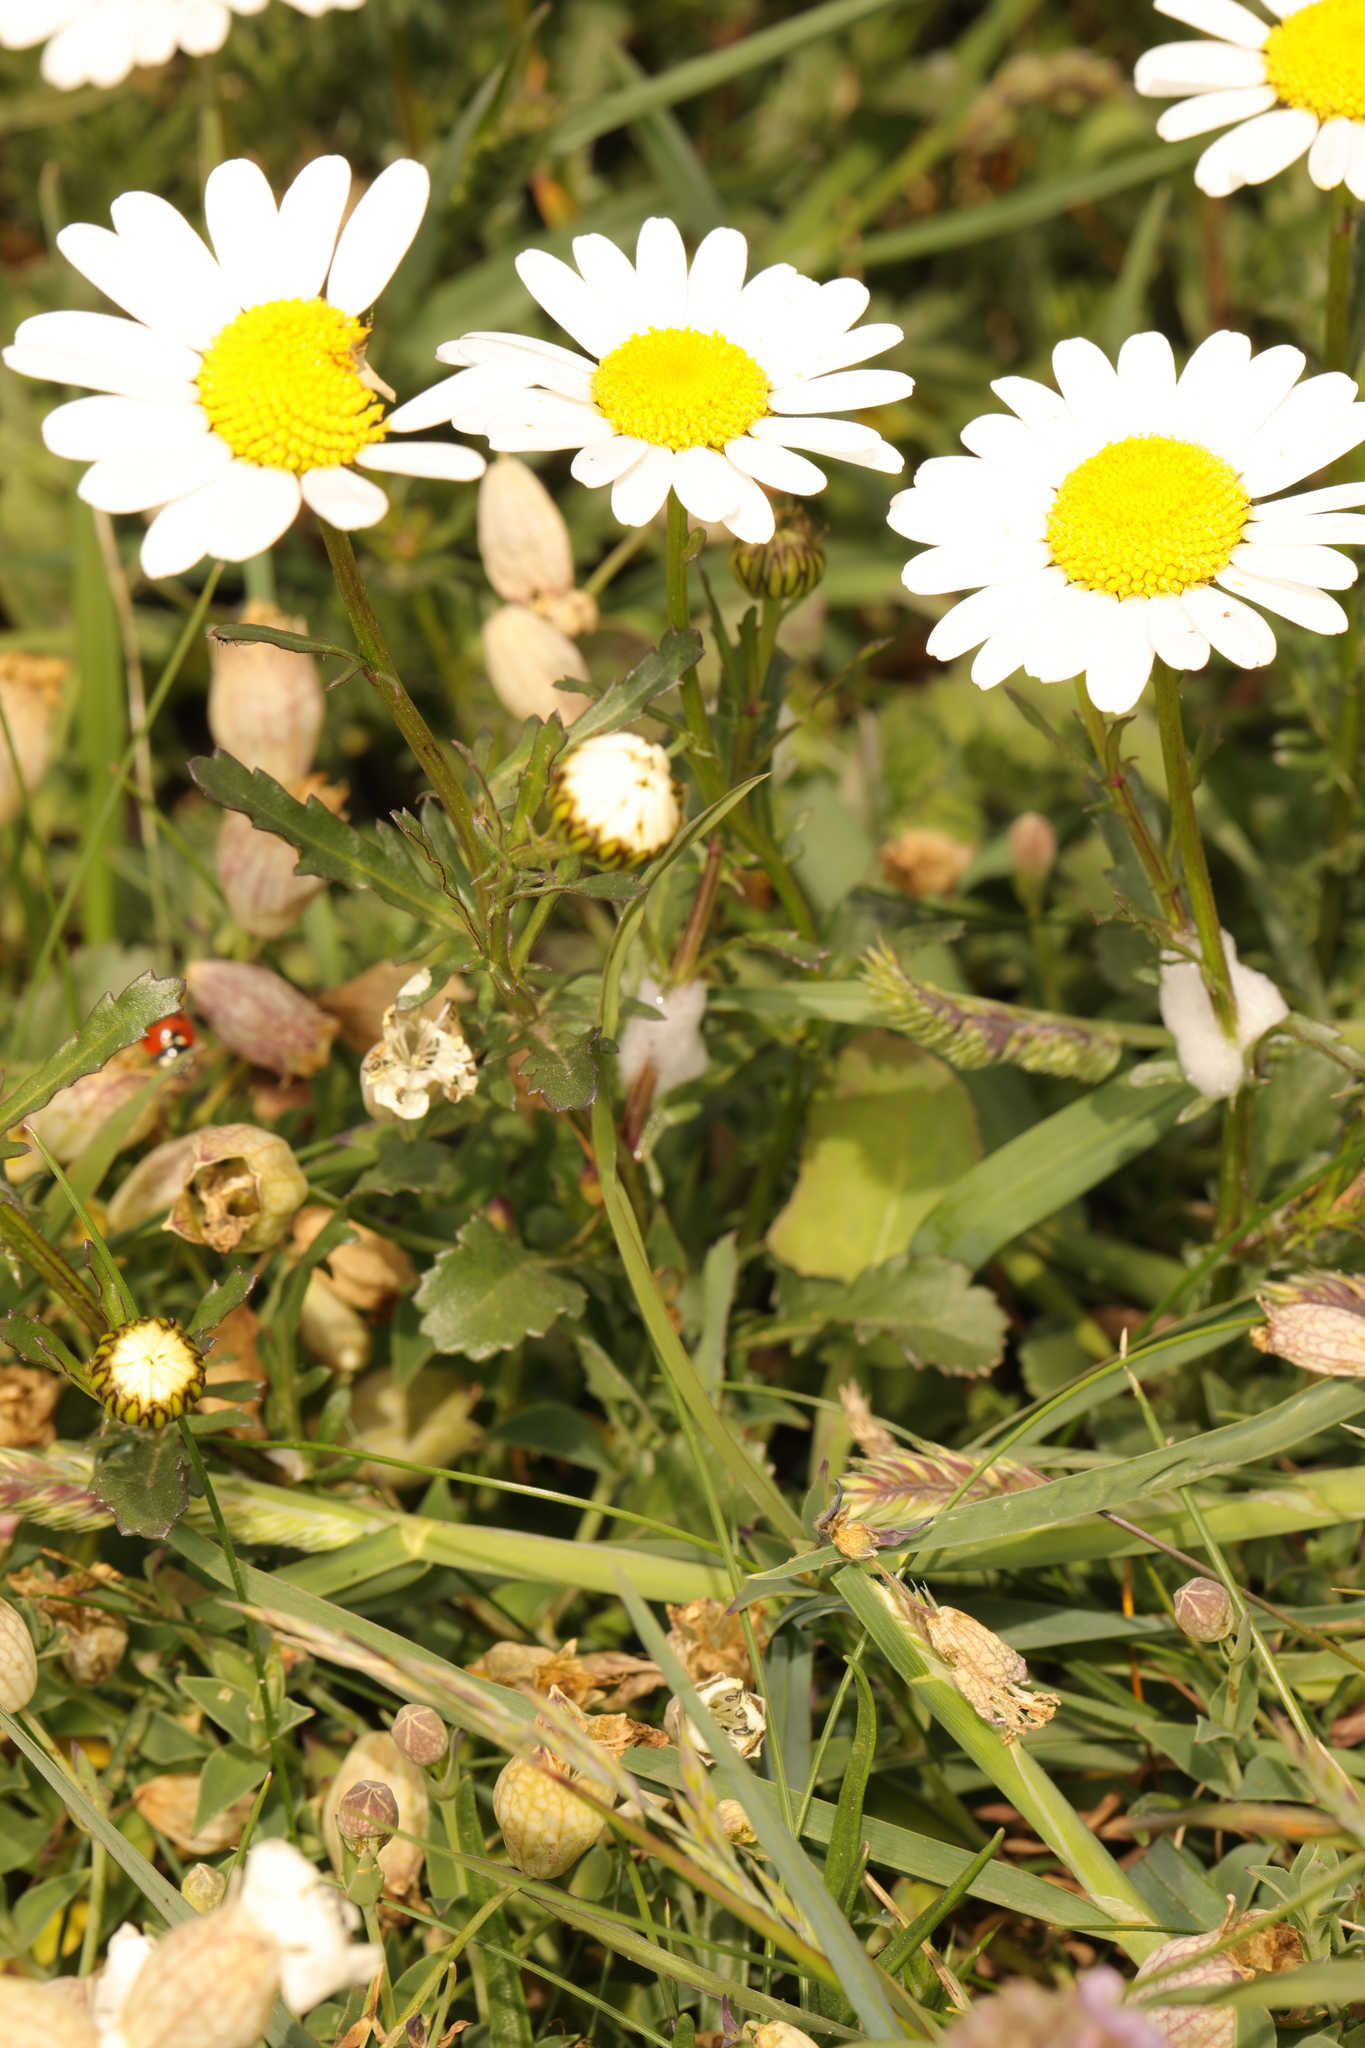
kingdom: Plantae
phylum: Tracheophyta
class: Magnoliopsida
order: Asterales
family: Asteraceae
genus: Leucanthemum
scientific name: Leucanthemum vulgare
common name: Oxeye daisy
